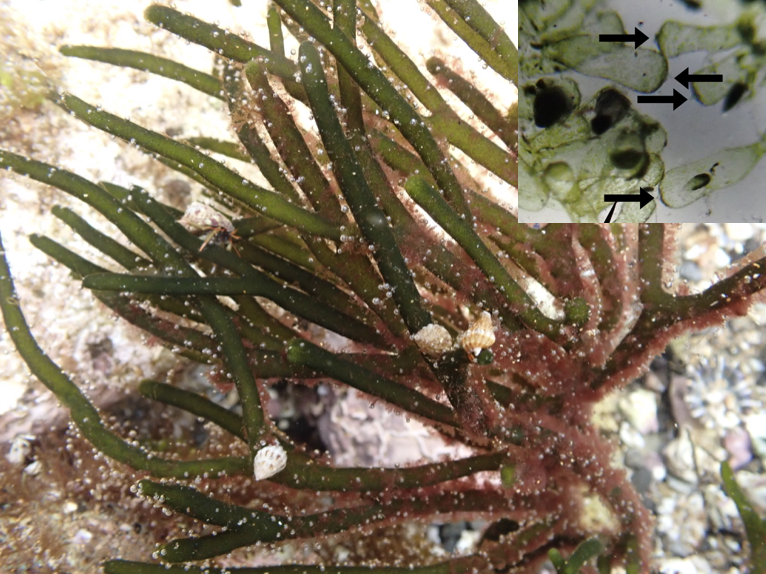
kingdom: Plantae
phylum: Chlorophyta
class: Ulvophyceae
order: Bryopsidales
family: Codiaceae
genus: Codium
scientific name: Codium fragile
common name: Dead man's fingers
